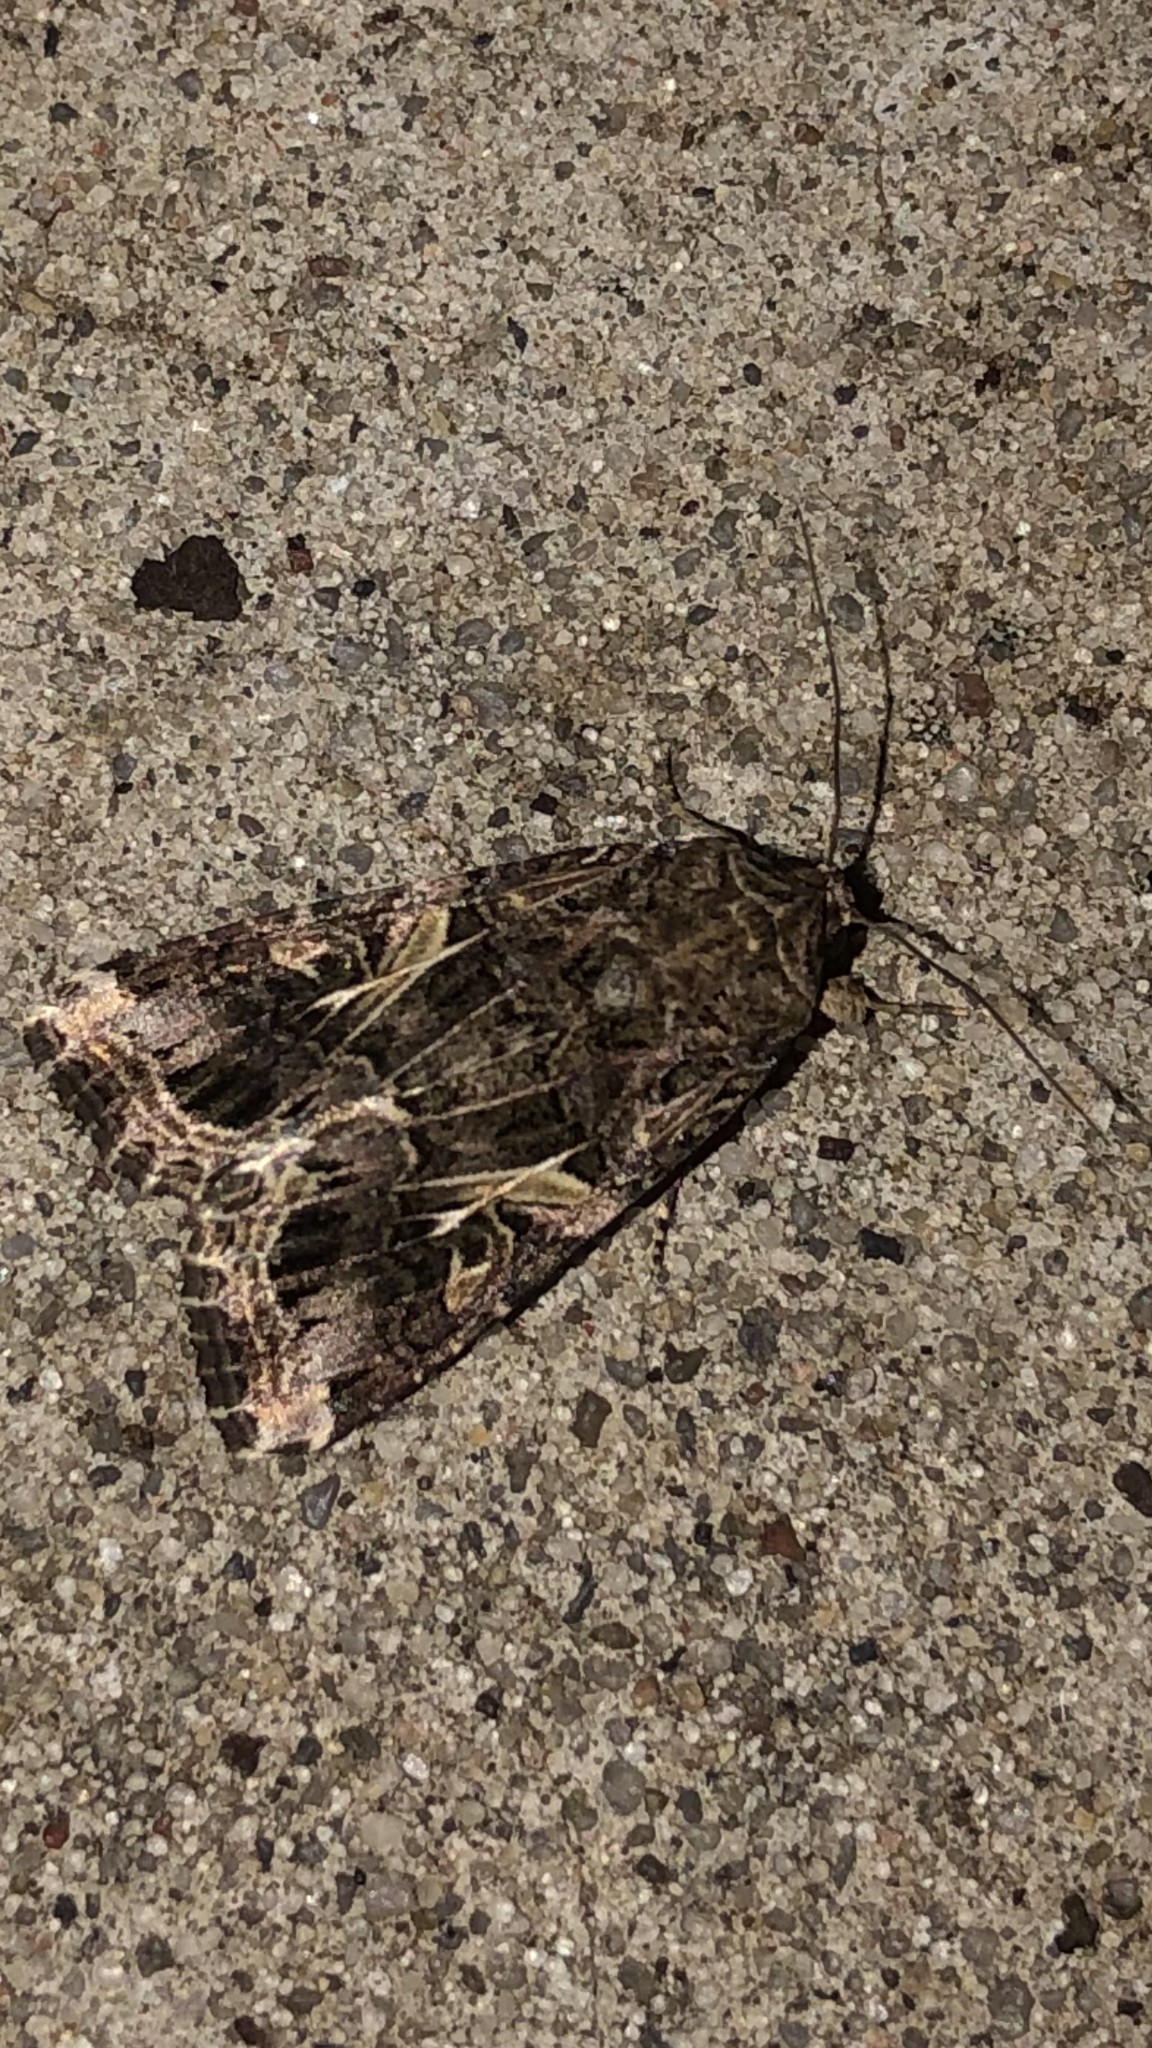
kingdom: Animalia
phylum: Arthropoda
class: Insecta
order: Lepidoptera
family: Noctuidae
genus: Spodoptera
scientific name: Spodoptera ornithogalli
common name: Yellow-striped armyworm
